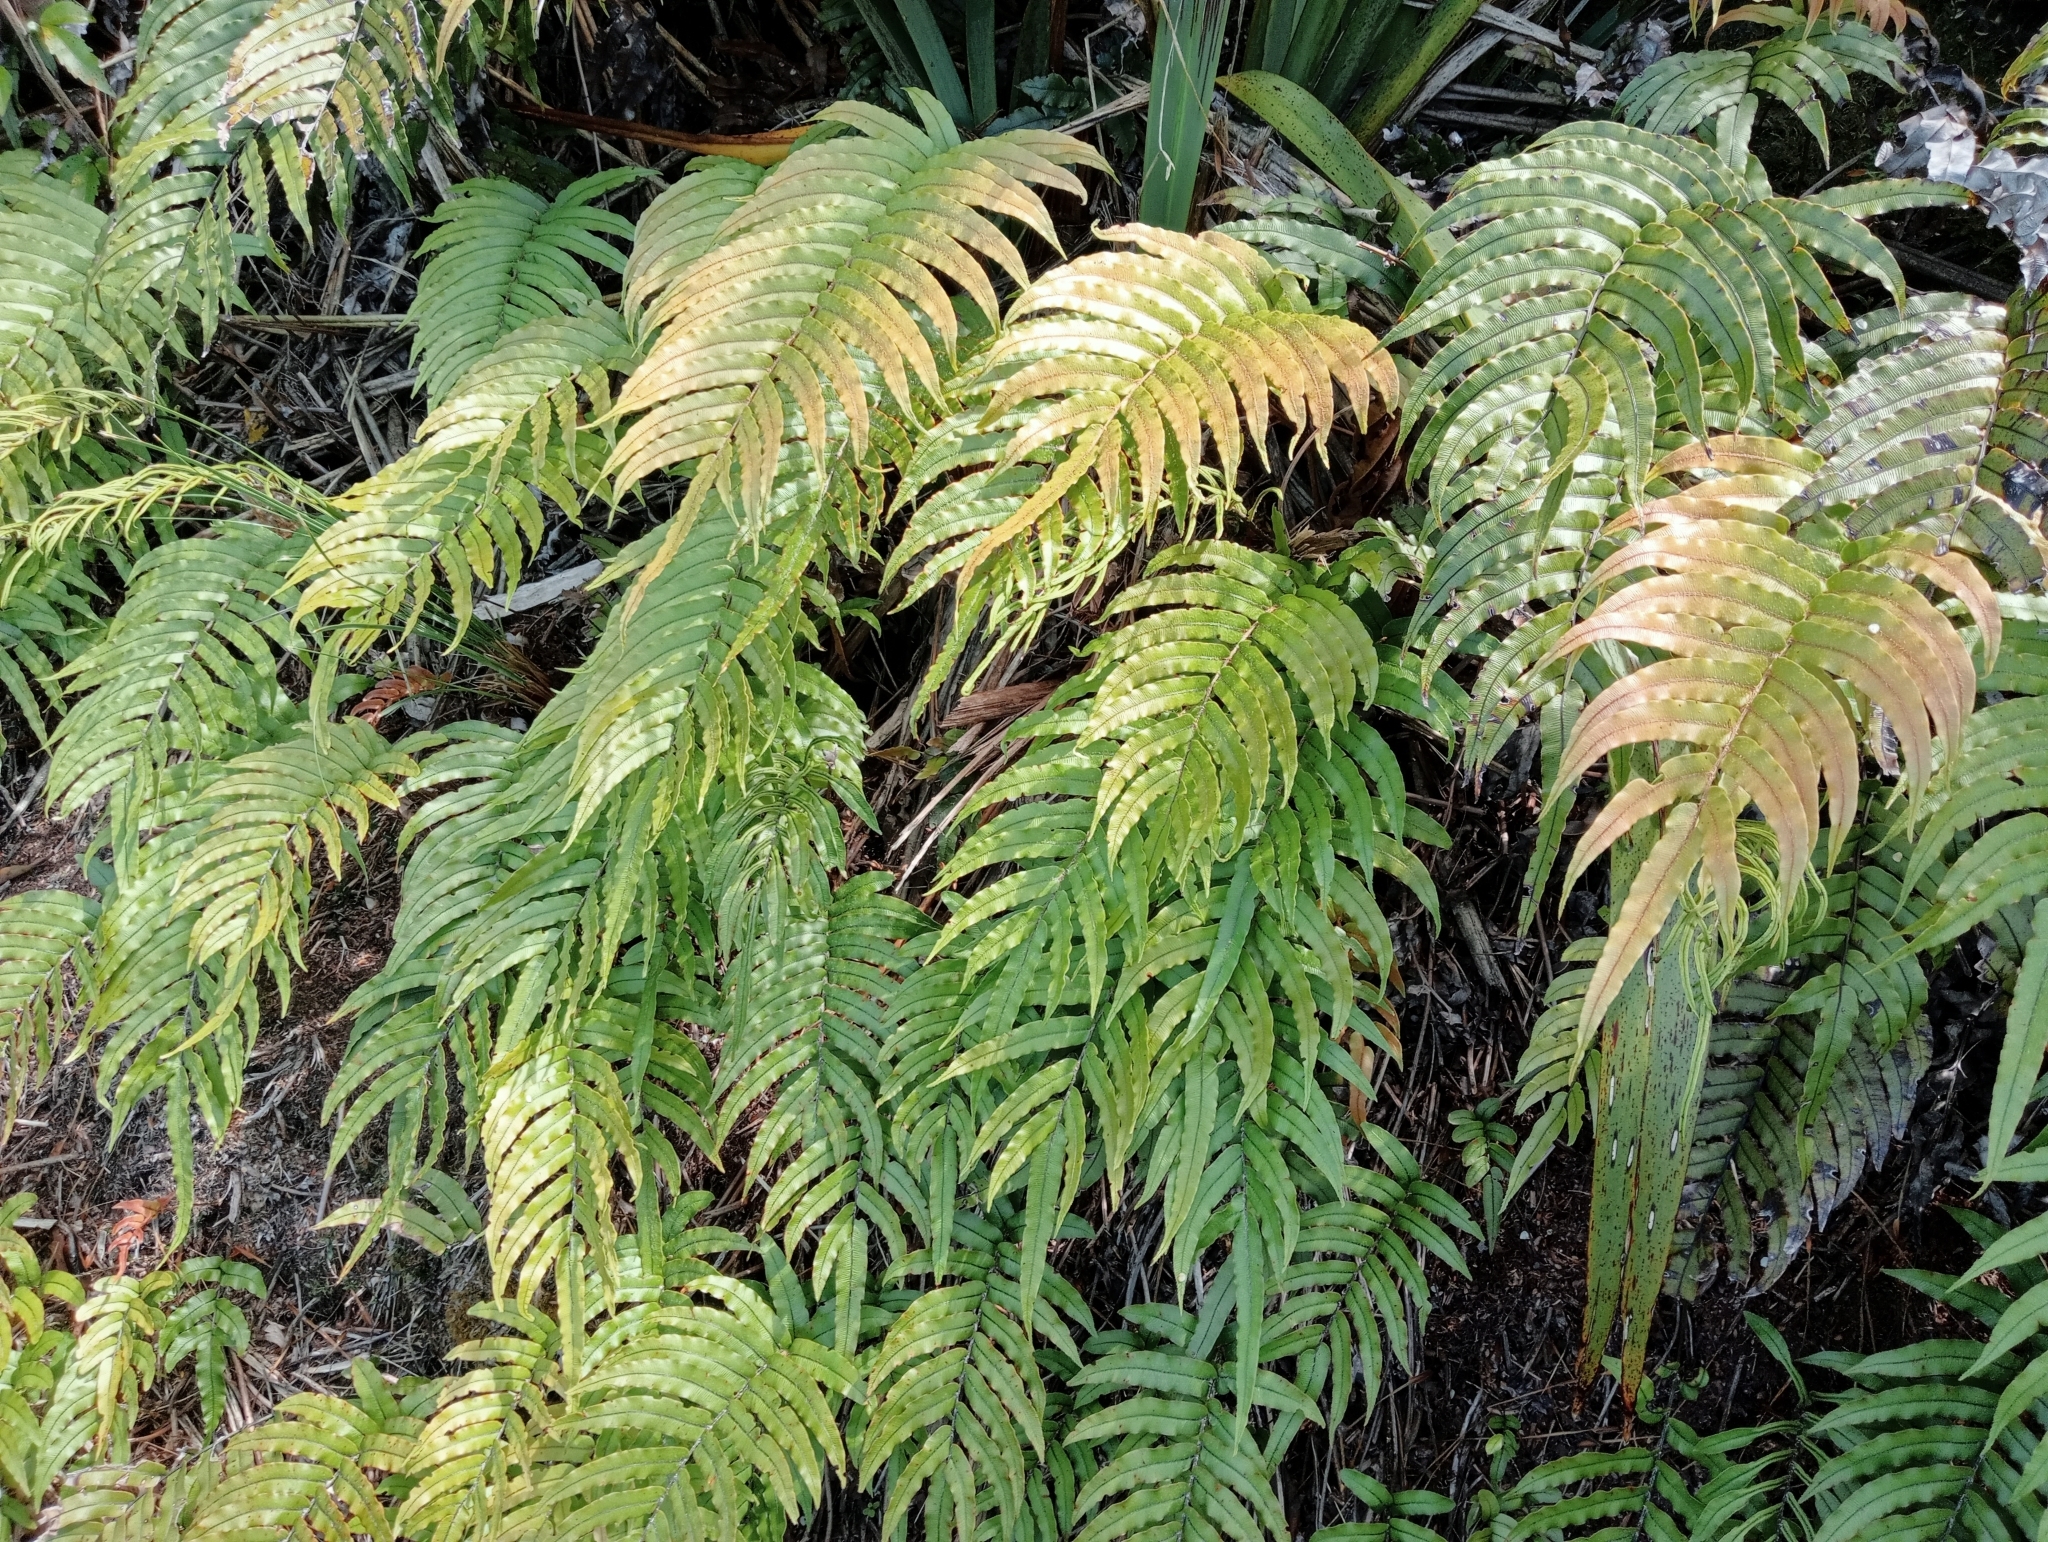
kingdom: Plantae
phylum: Tracheophyta
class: Polypodiopsida
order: Polypodiales
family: Blechnaceae
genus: Parablechnum
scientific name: Parablechnum montanum
